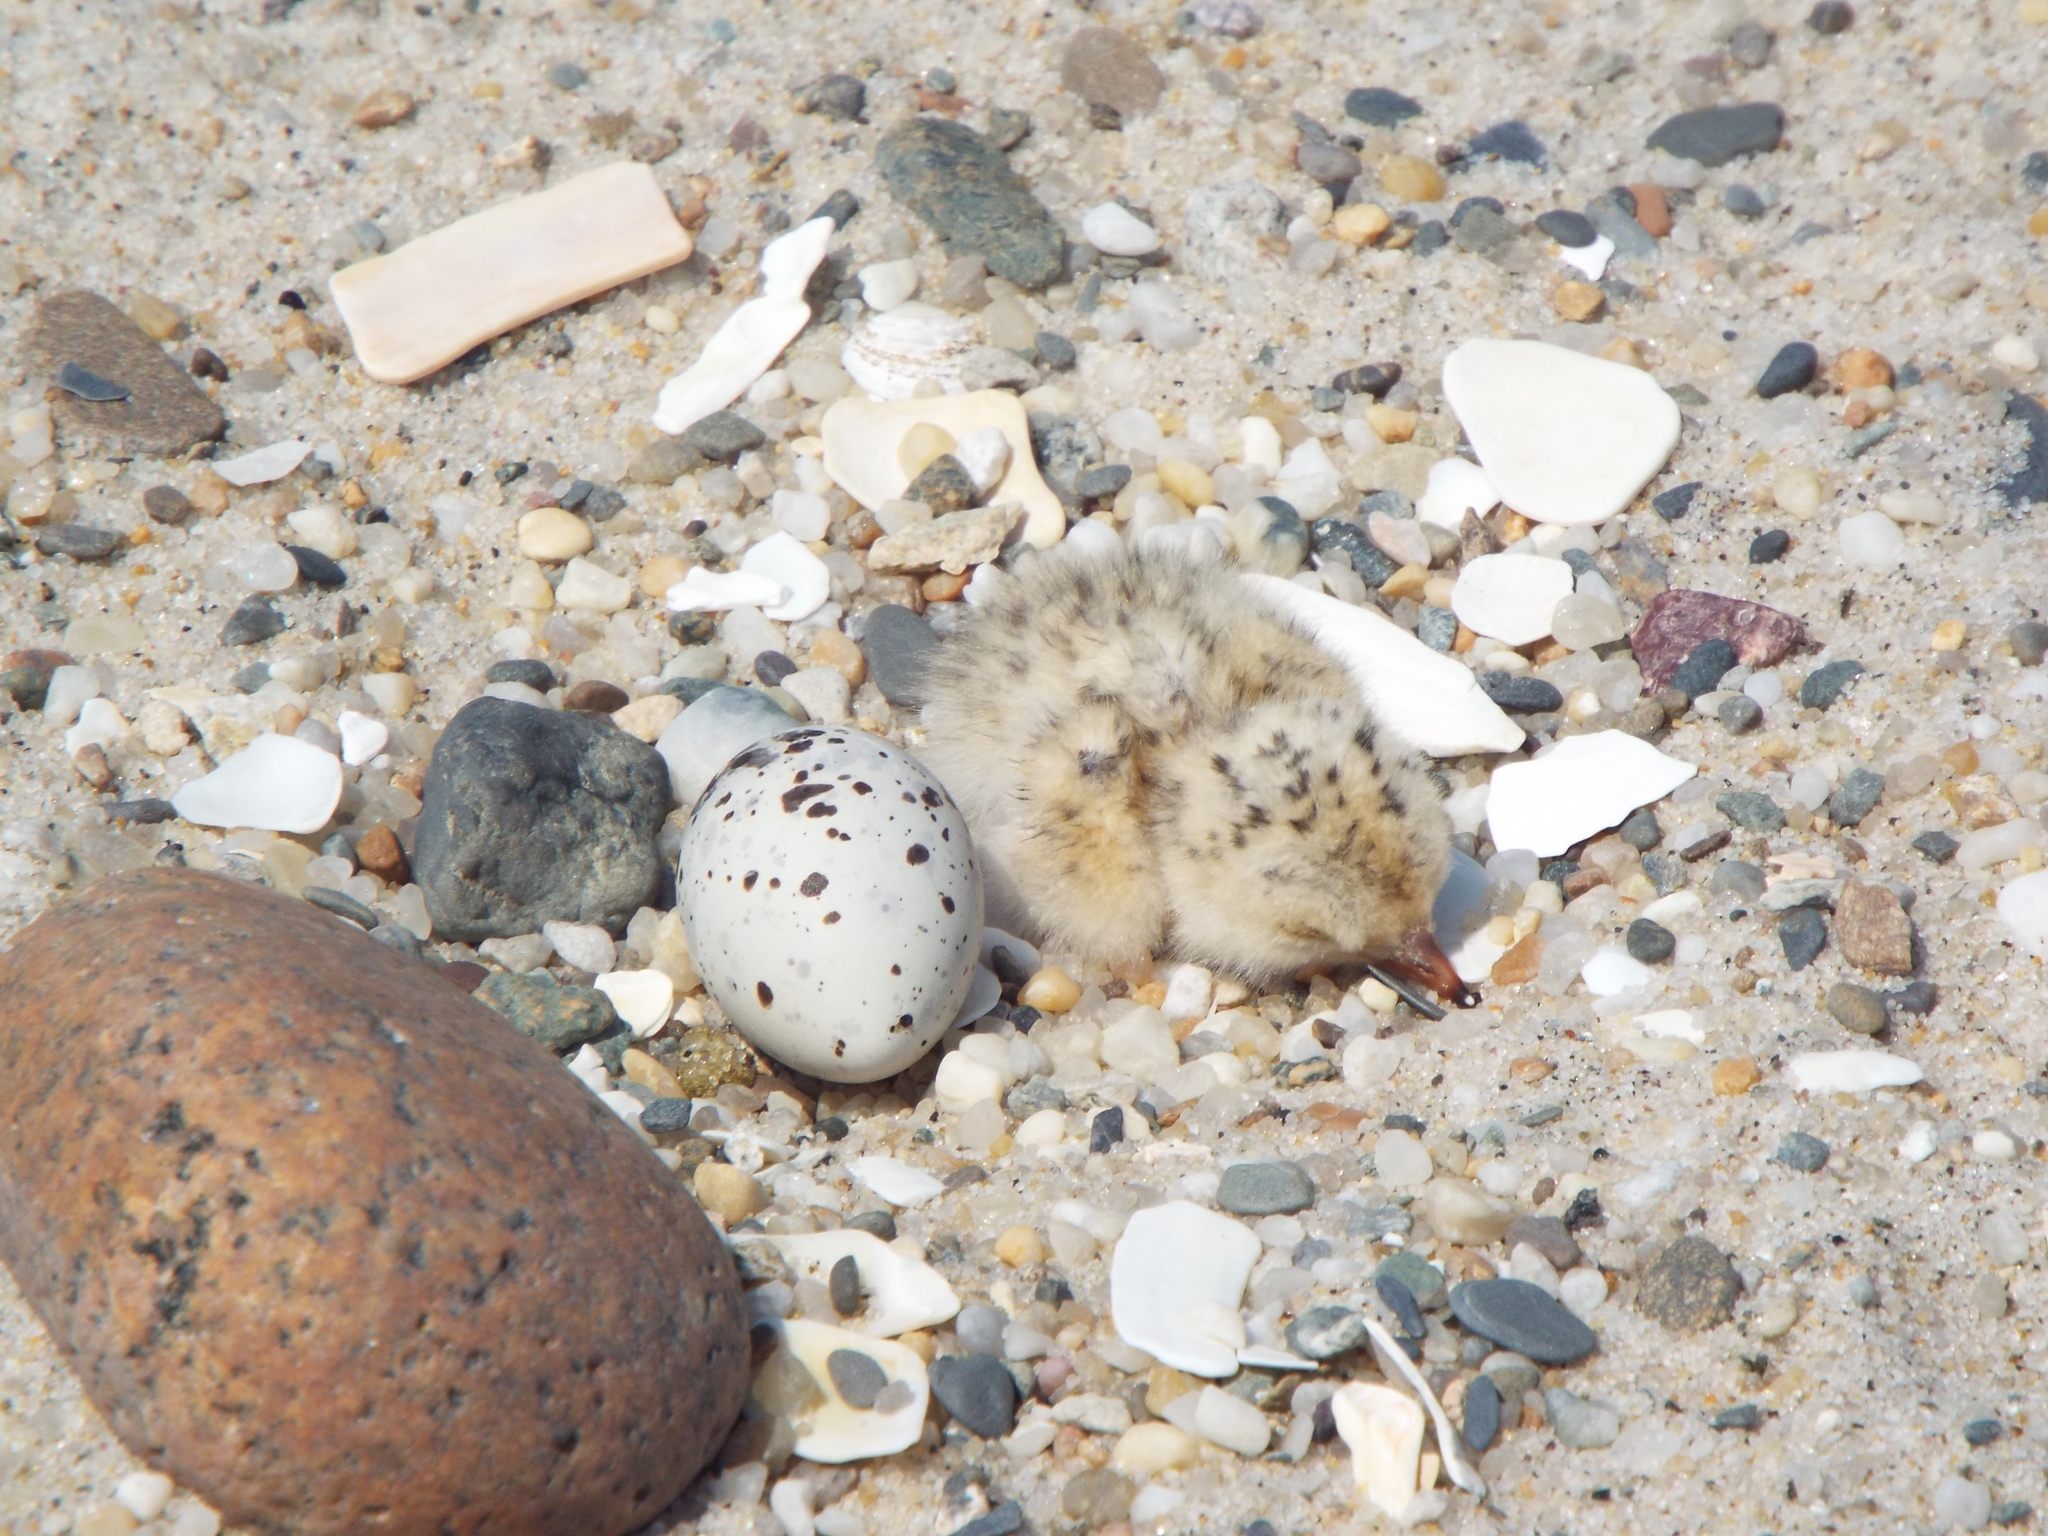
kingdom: Animalia
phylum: Chordata
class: Aves
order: Charadriiformes
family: Laridae
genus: Sternula
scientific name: Sternula antillarum
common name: Least tern
